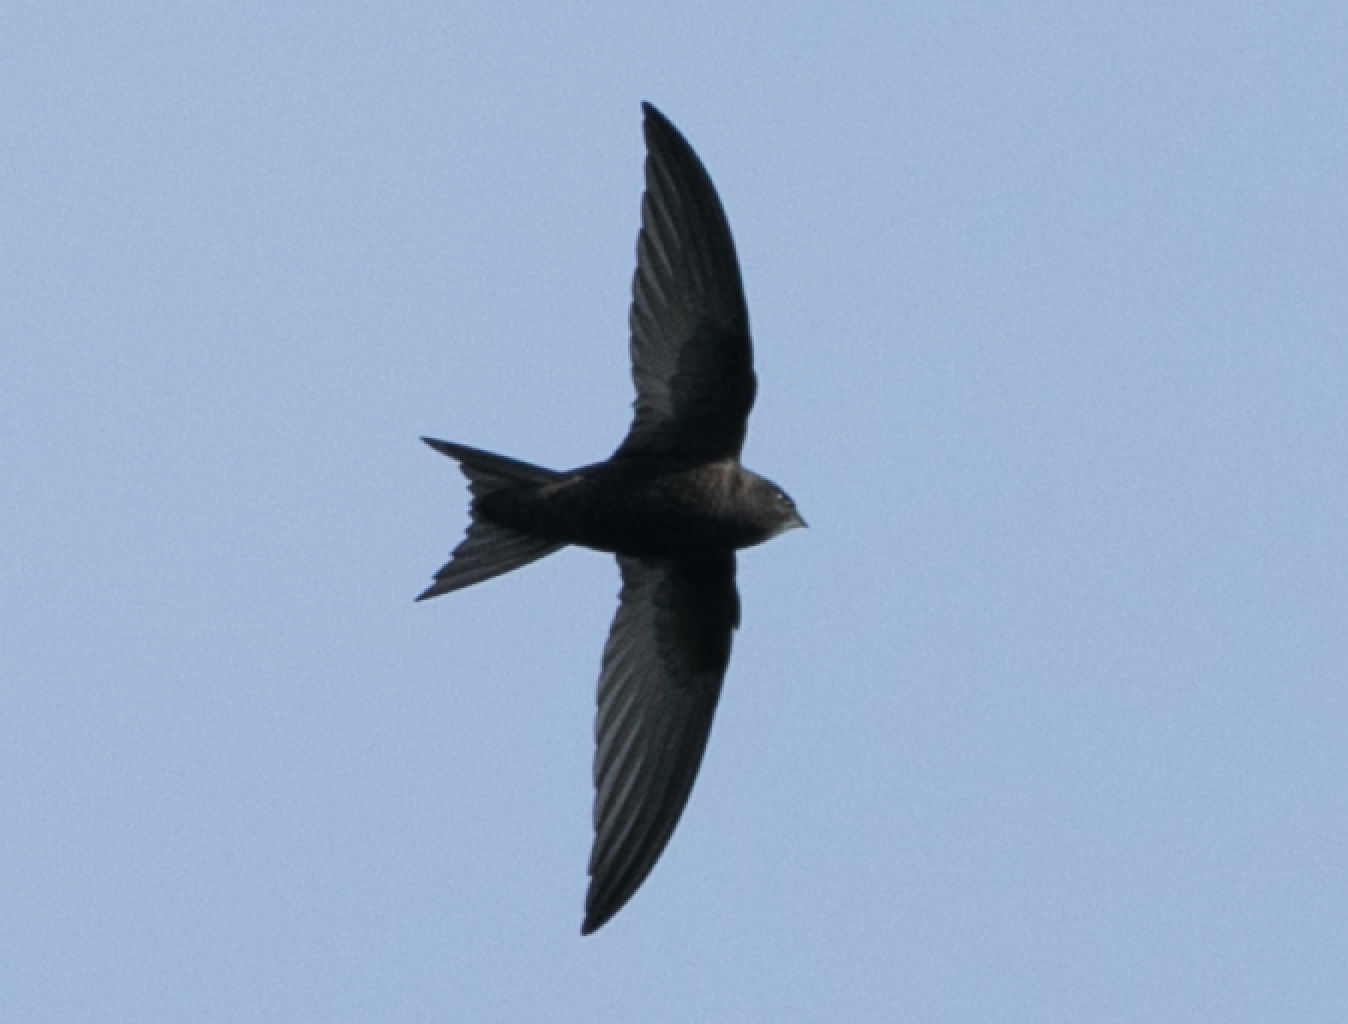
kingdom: Animalia
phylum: Chordata
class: Aves
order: Apodiformes
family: Apodidae
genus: Apus
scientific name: Apus apus
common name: Common swift
